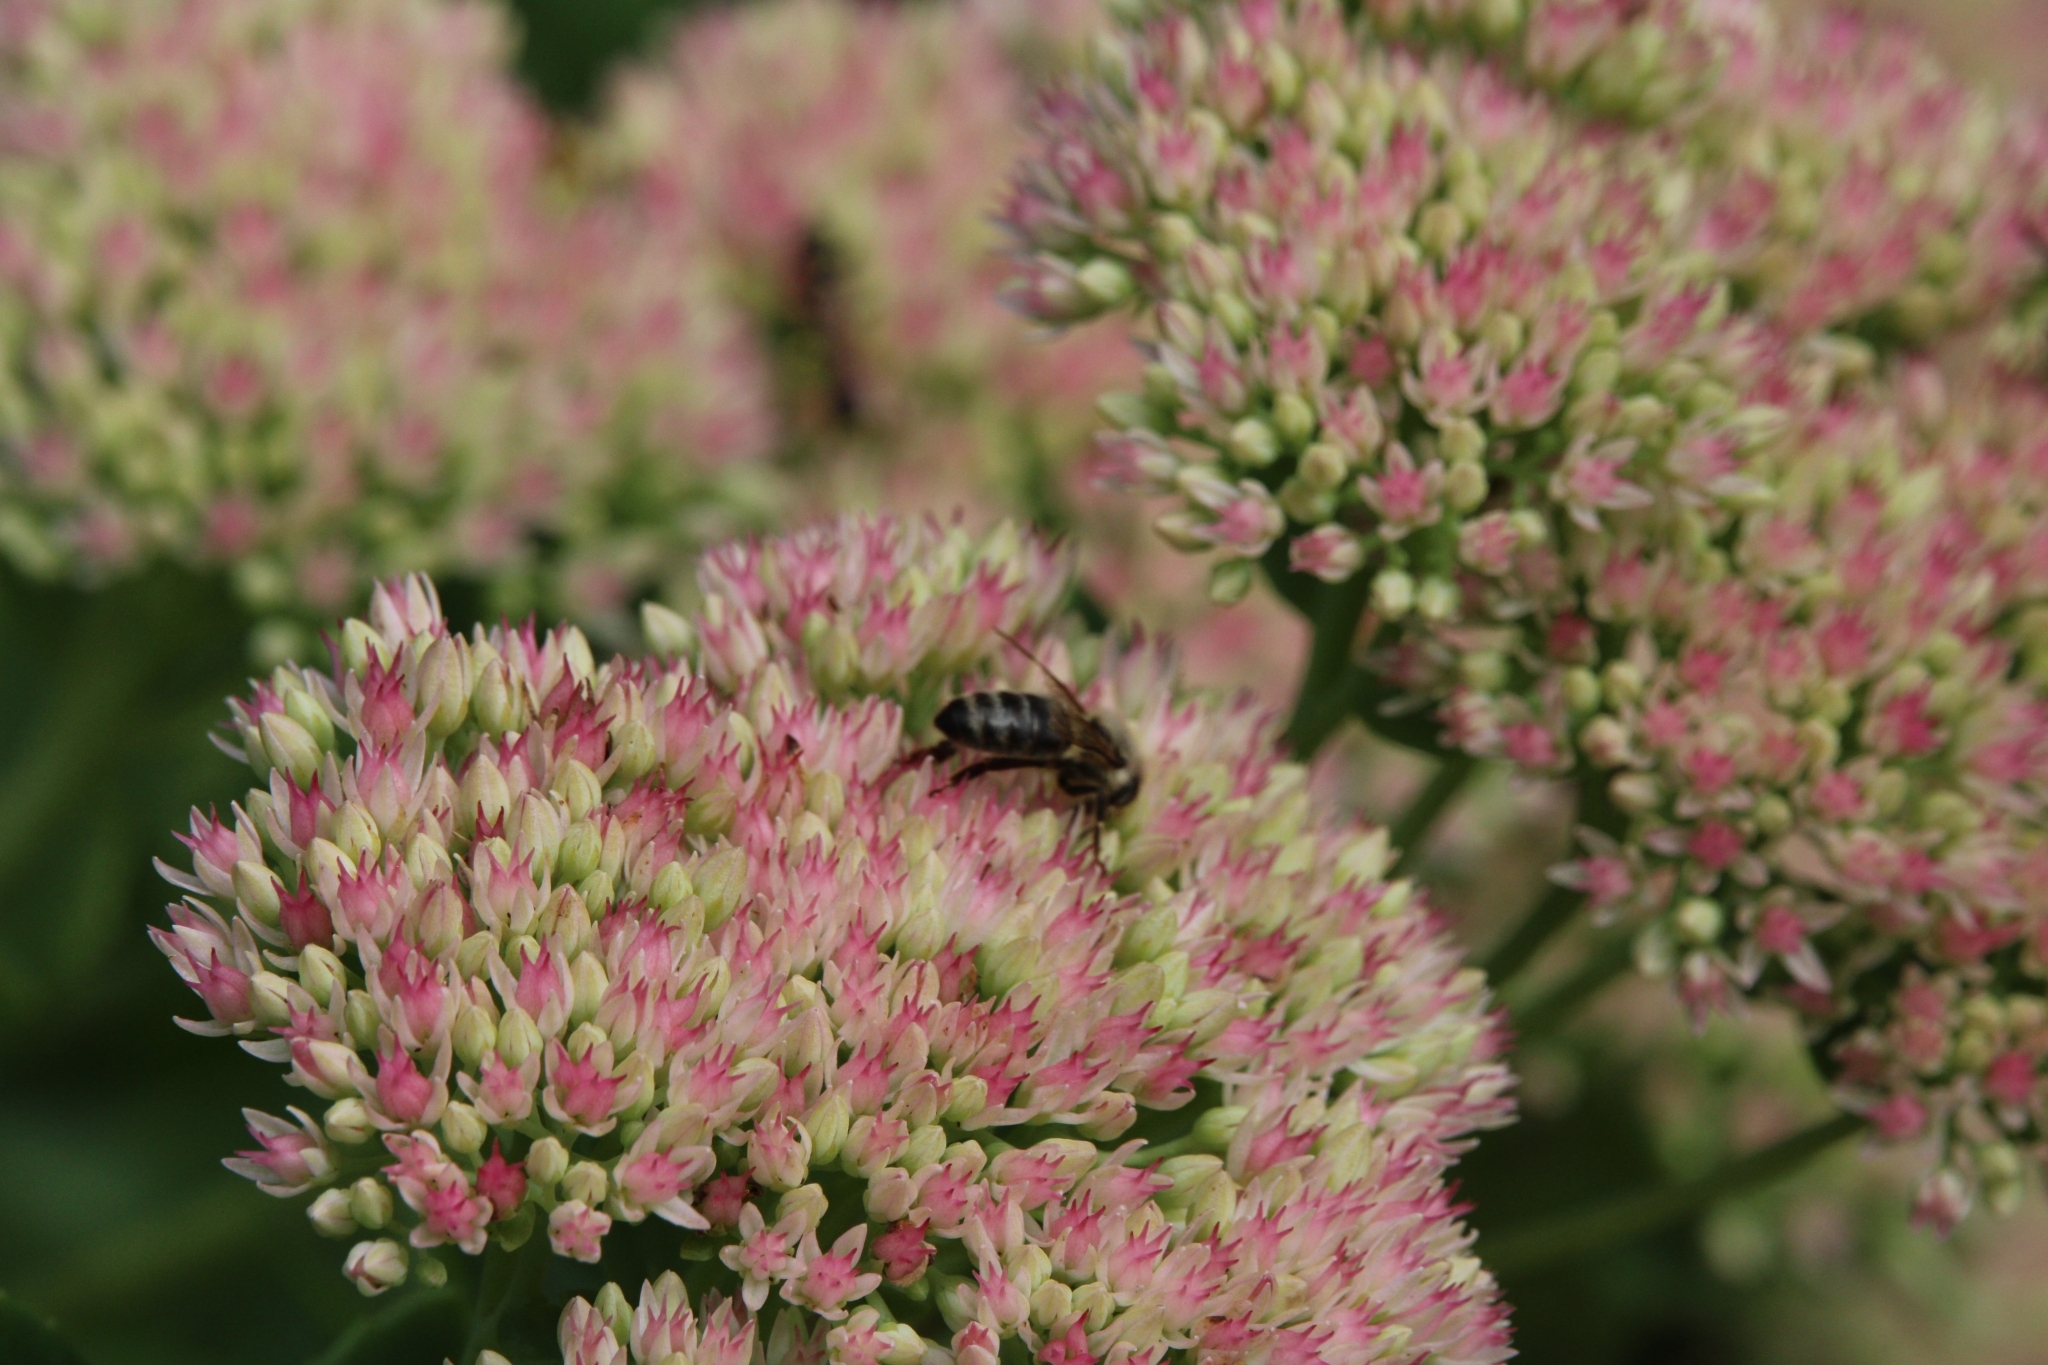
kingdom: Animalia
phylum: Arthropoda
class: Insecta
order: Hymenoptera
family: Apidae
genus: Apis
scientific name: Apis mellifera
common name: Honey bee
